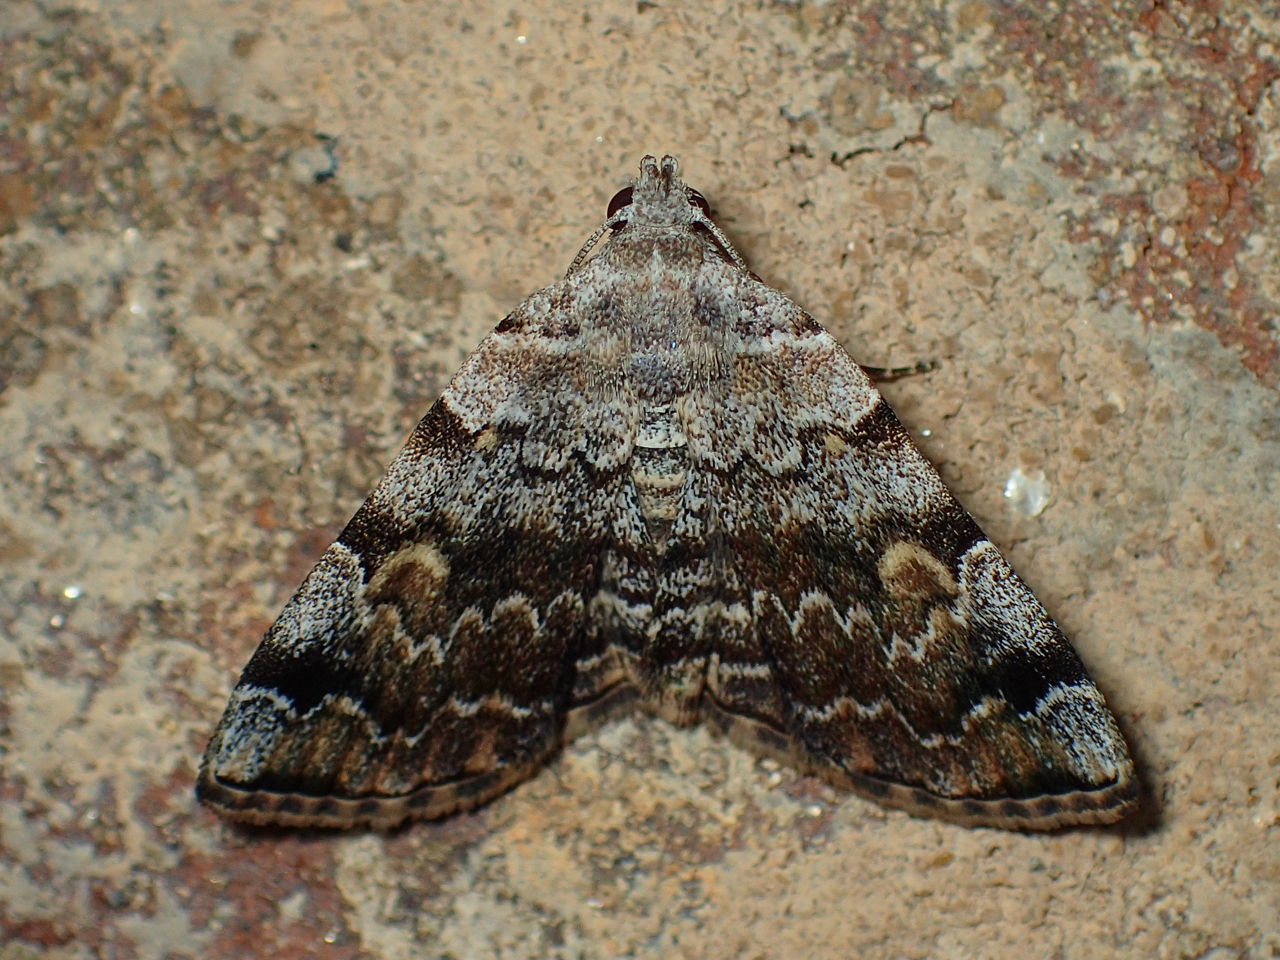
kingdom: Animalia
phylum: Arthropoda
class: Insecta
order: Lepidoptera
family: Erebidae
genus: Idia
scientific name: Idia americalis
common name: American idia moth
